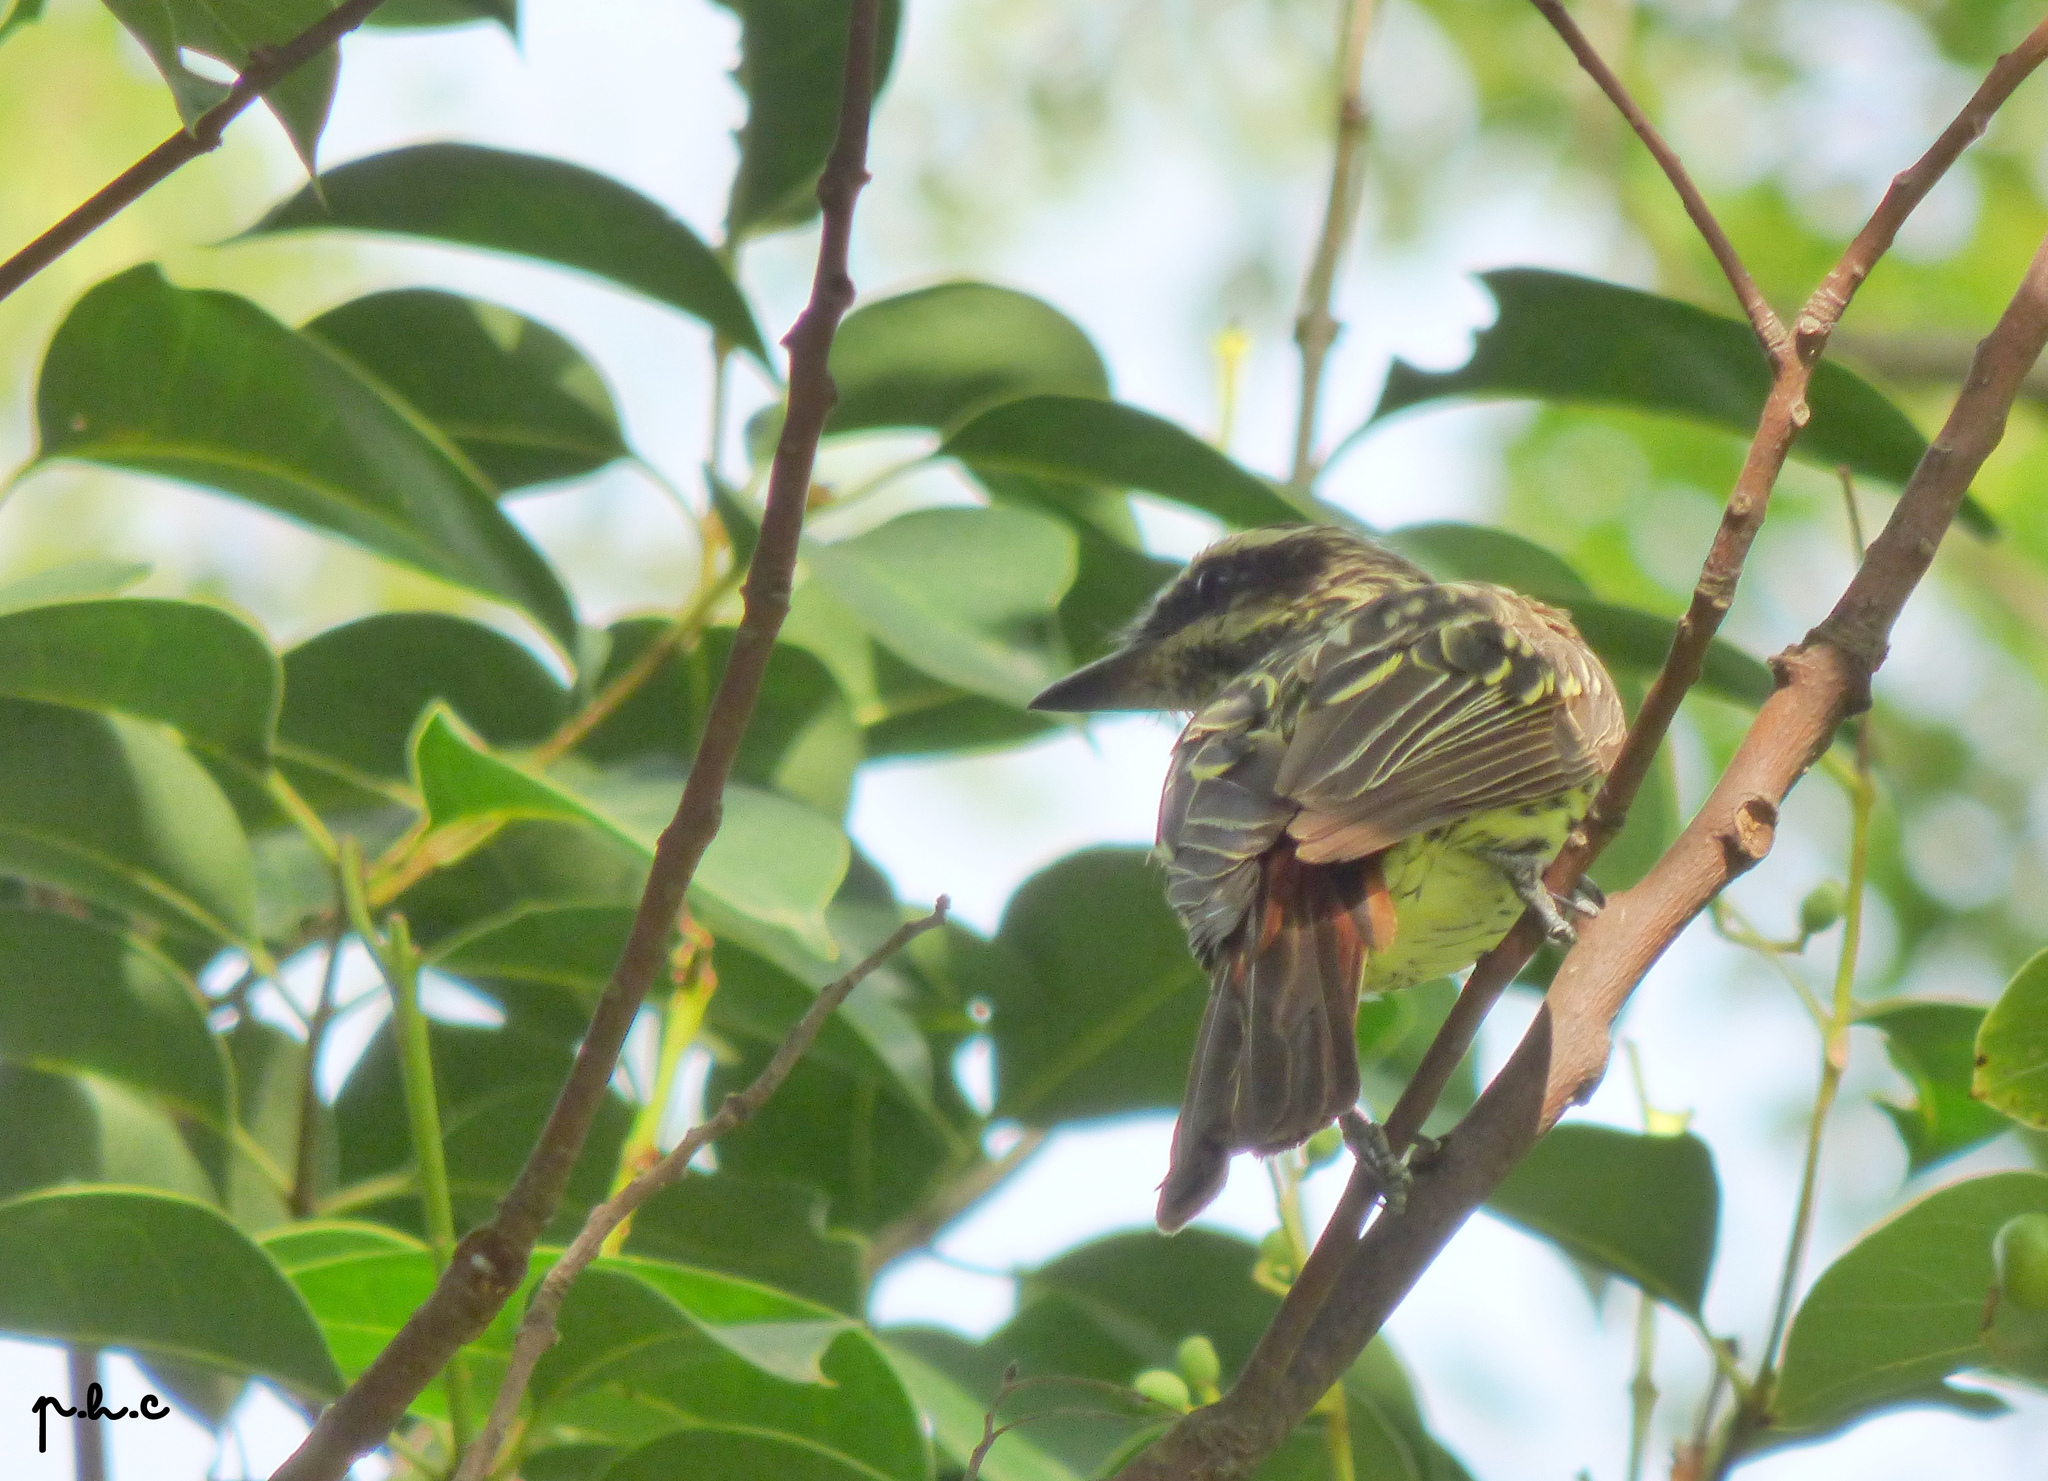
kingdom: Animalia
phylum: Chordata
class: Aves
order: Passeriformes
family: Tyrannidae
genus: Myiodynastes
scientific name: Myiodynastes maculatus
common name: Streaked flycatcher
